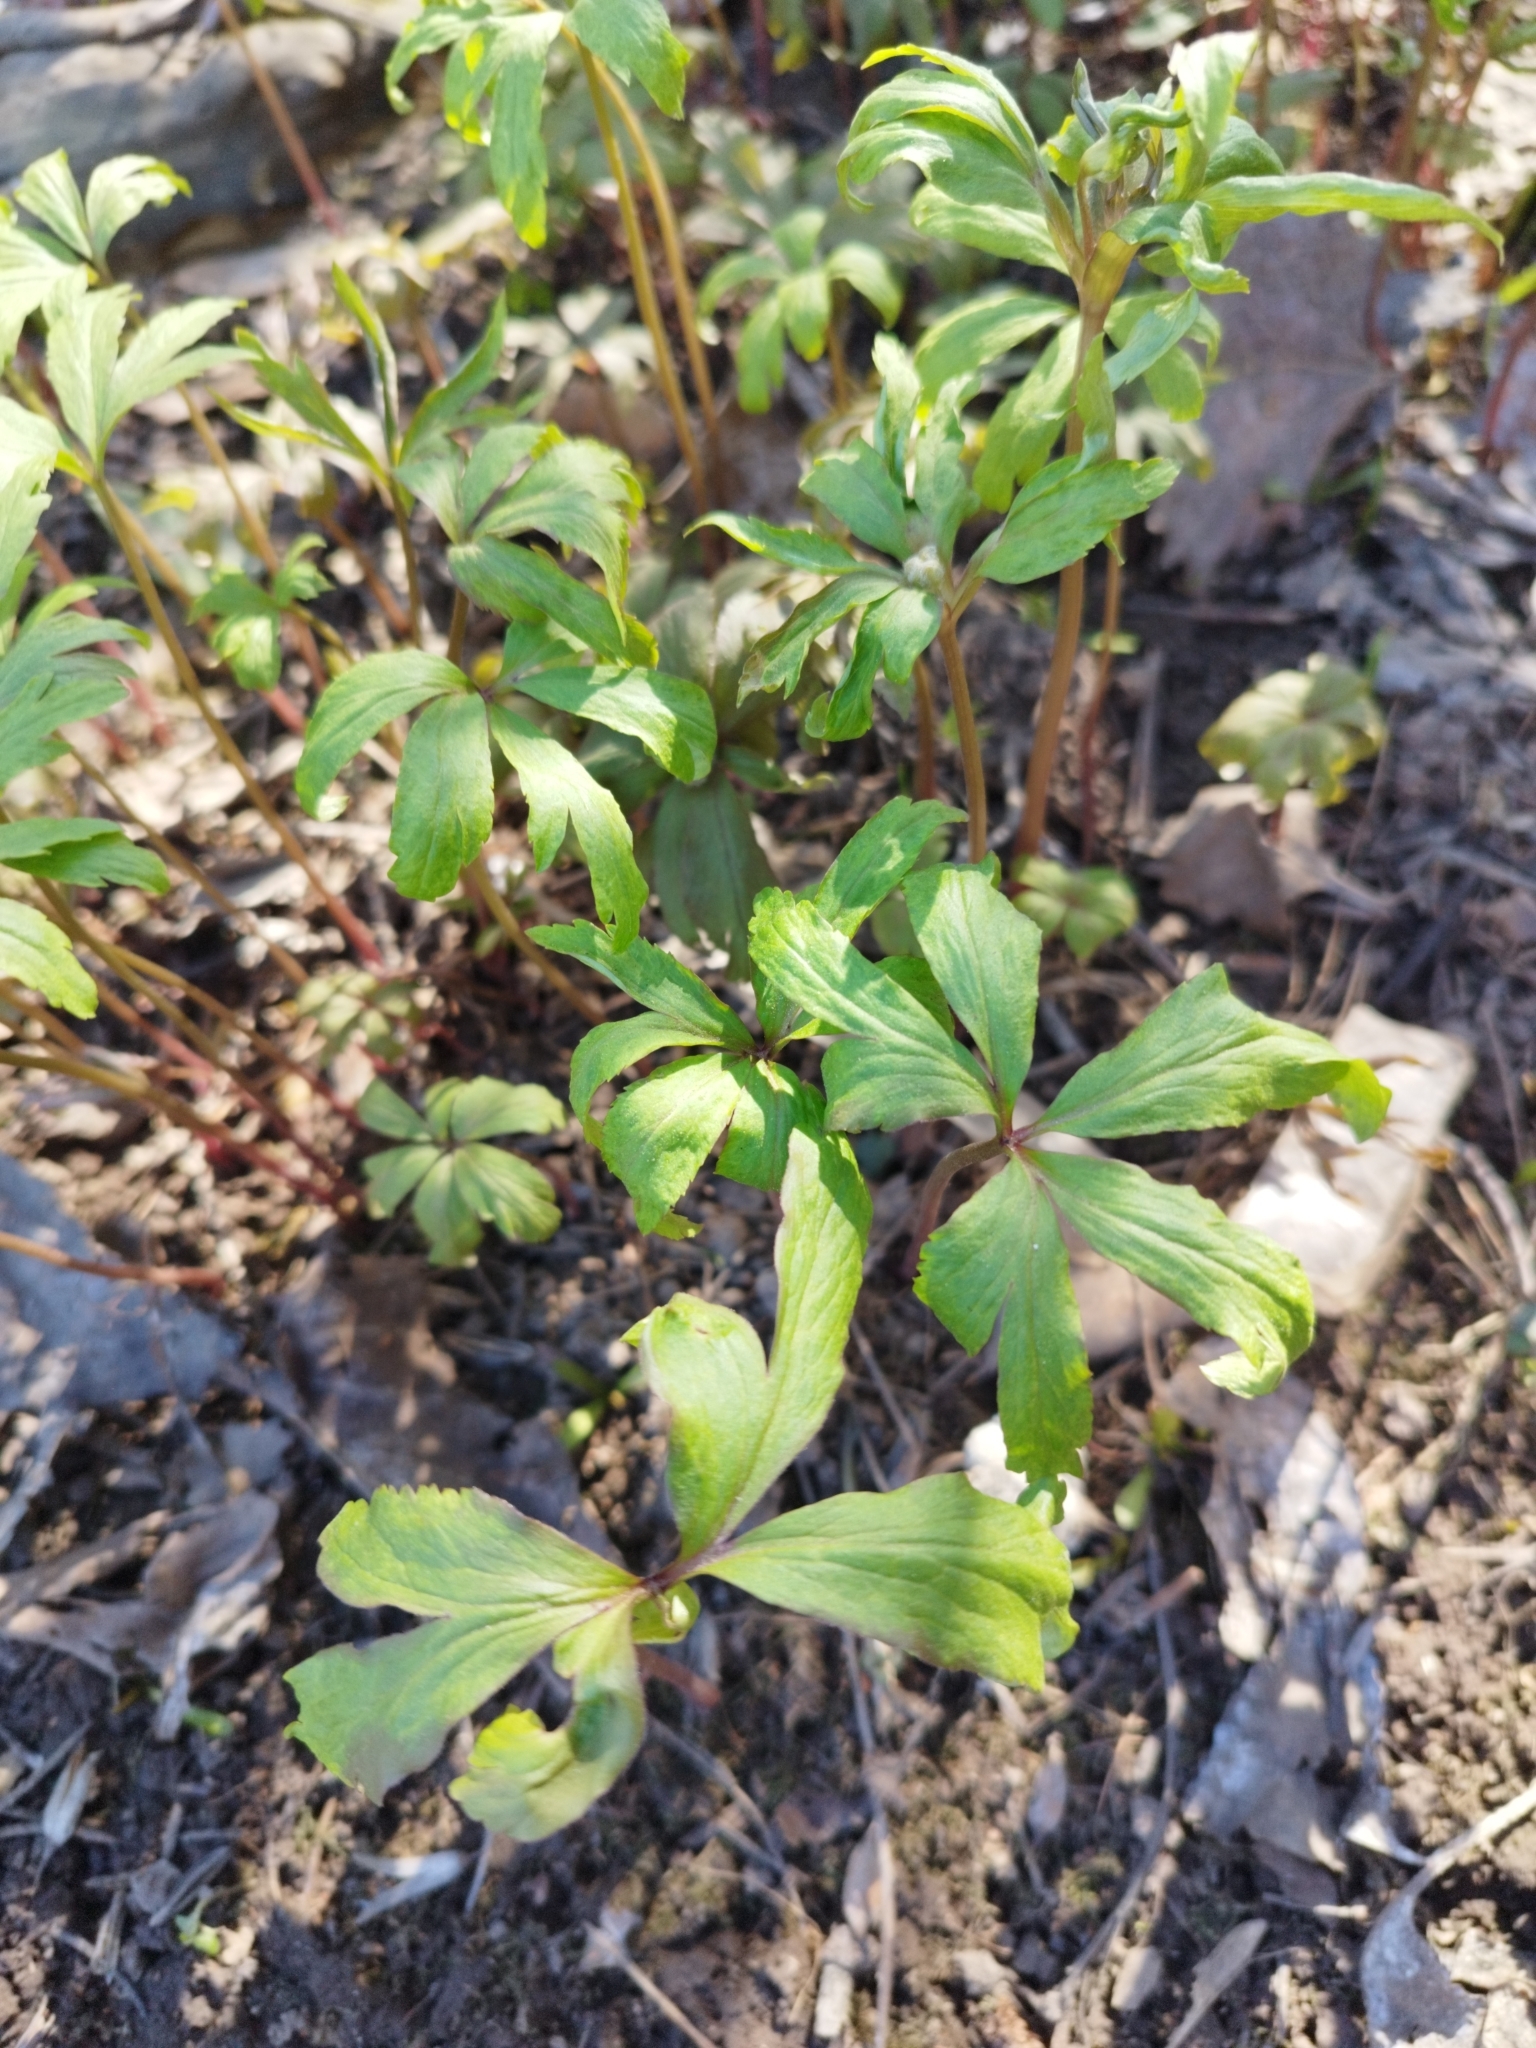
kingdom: Plantae
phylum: Tracheophyta
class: Magnoliopsida
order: Ranunculales
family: Ranunculaceae
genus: Anemone
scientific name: Anemone ranunculoides
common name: Yellow anemone
